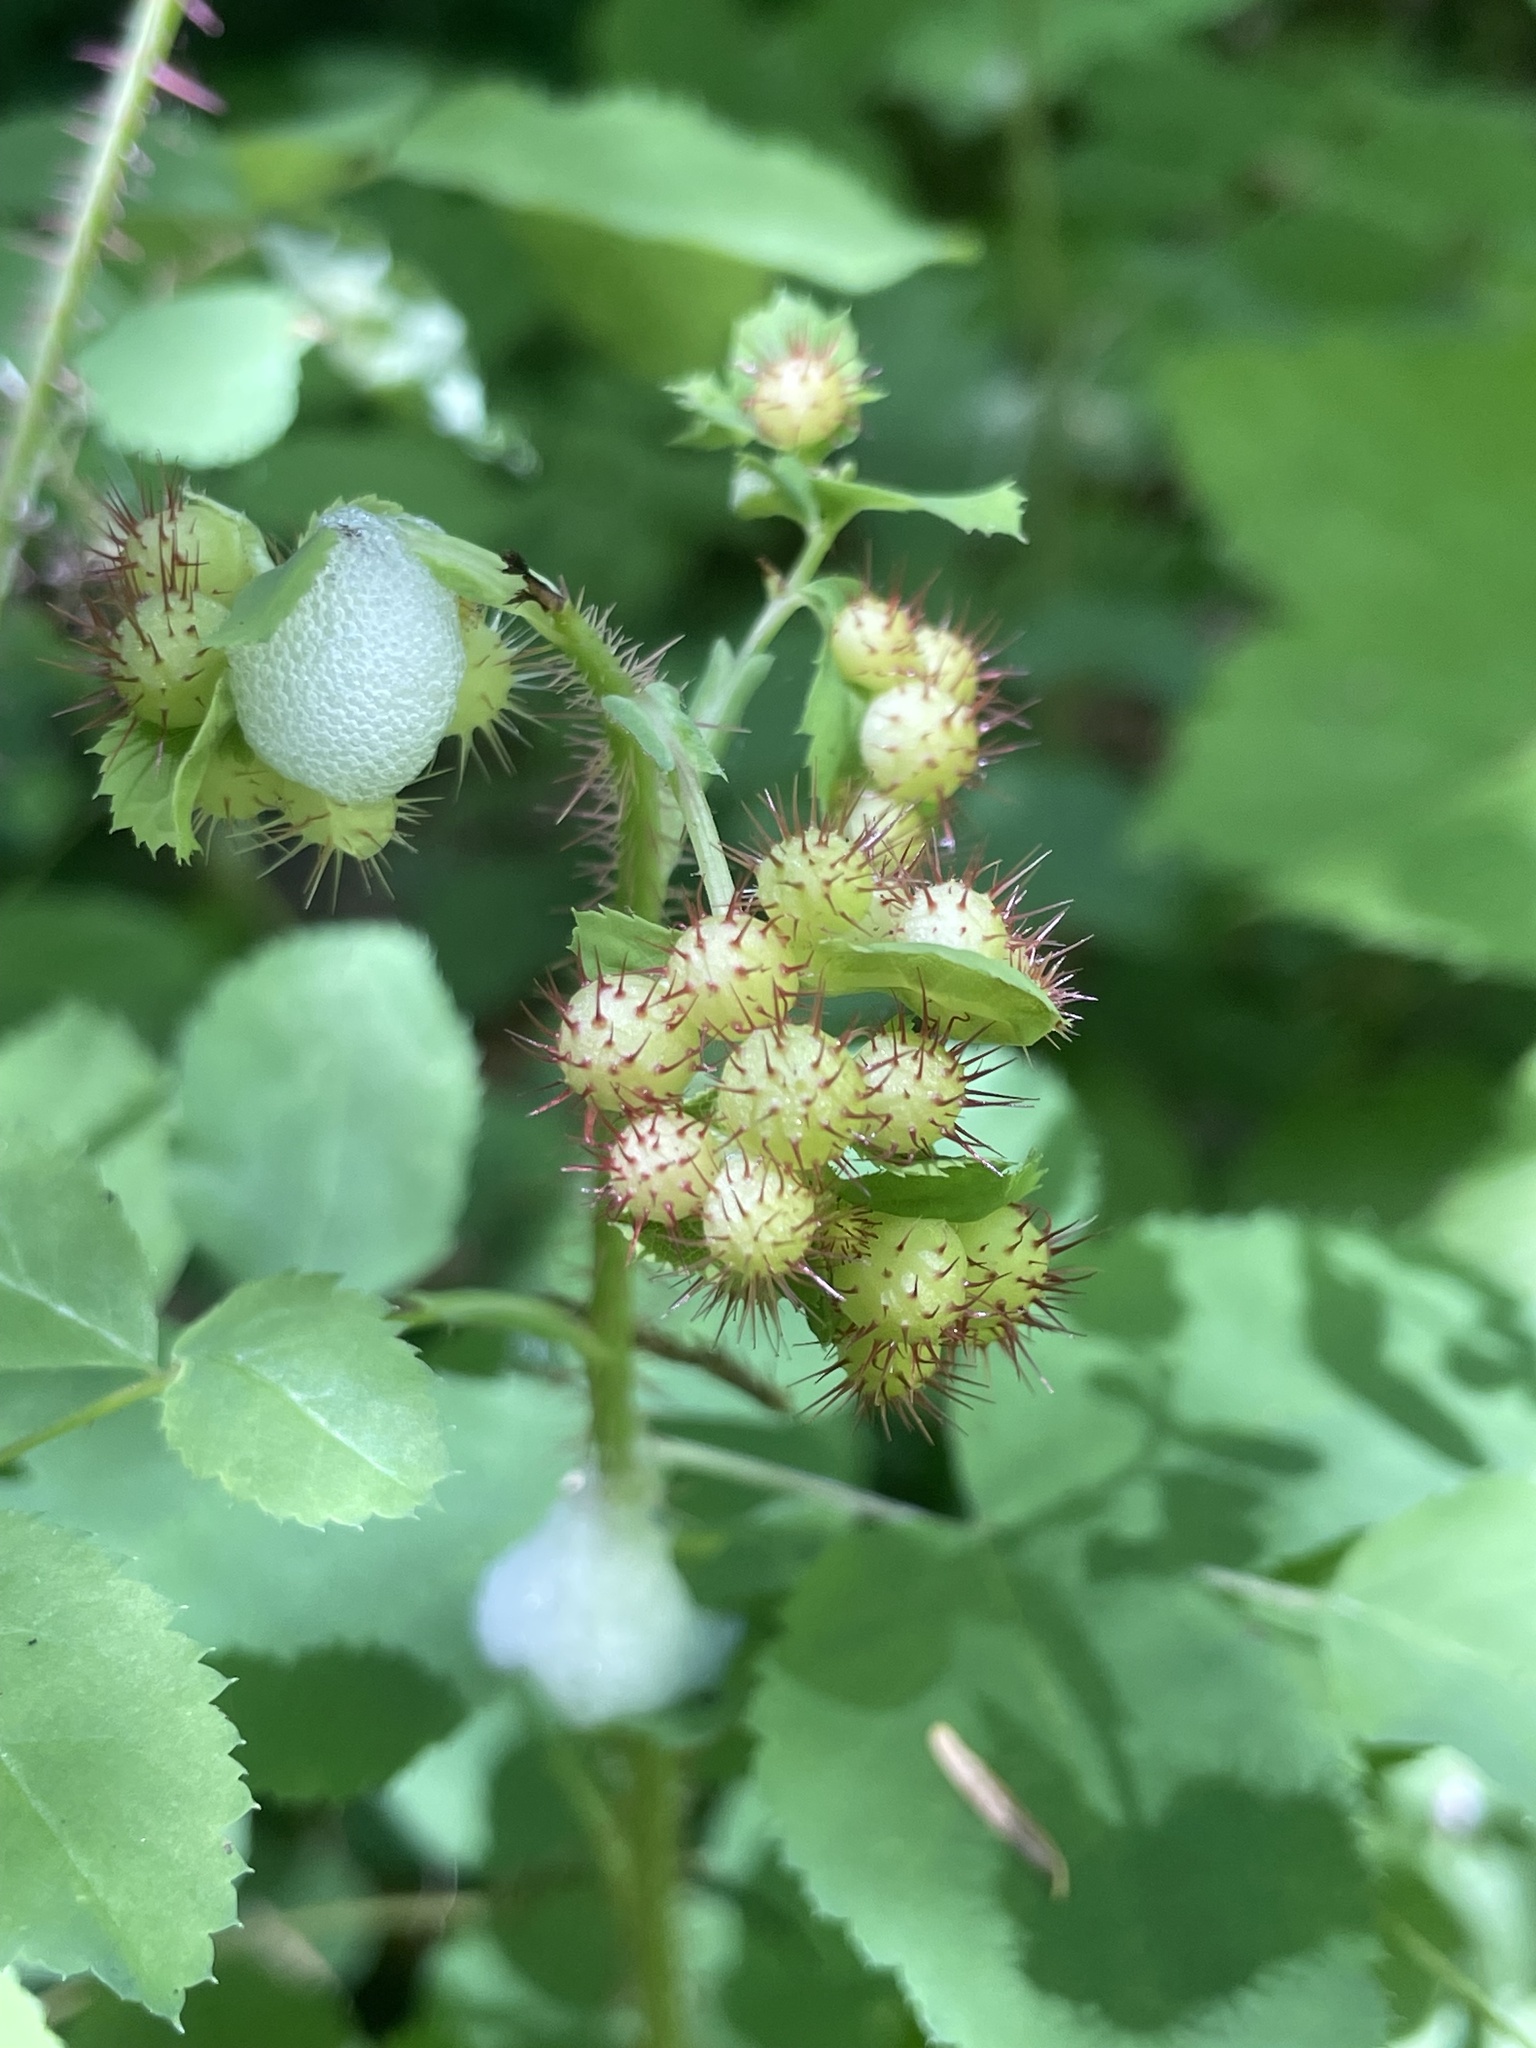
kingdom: Animalia
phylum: Arthropoda
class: Insecta
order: Hymenoptera
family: Cynipidae
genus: Diplolepis
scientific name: Diplolepis polita
